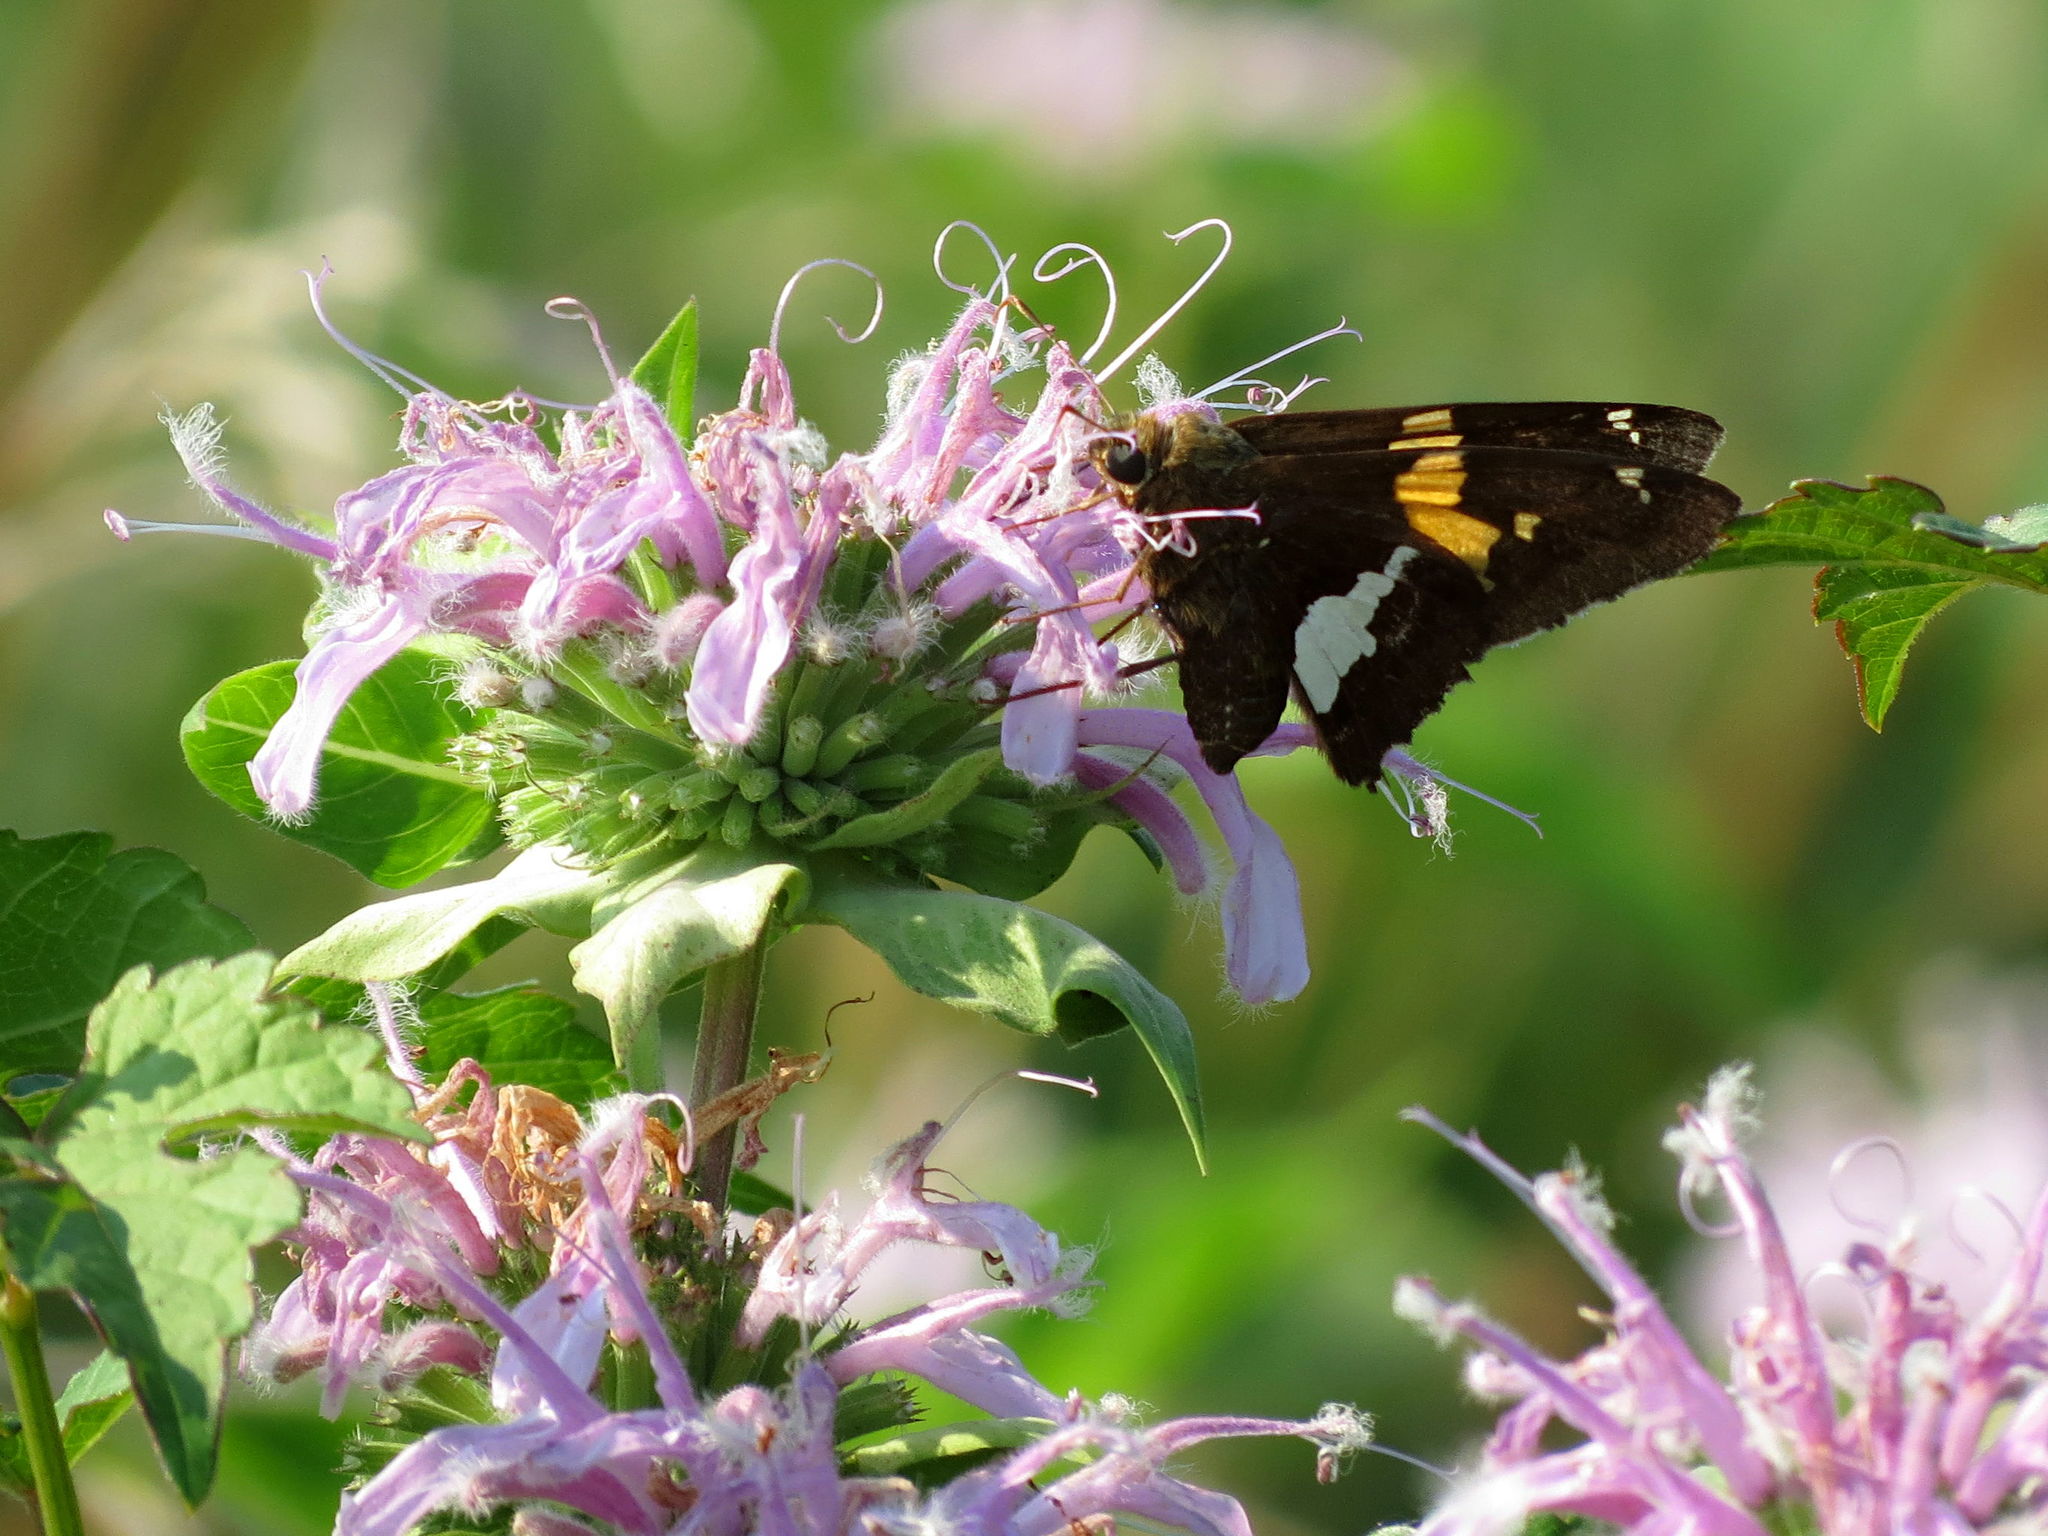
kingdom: Animalia
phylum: Arthropoda
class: Insecta
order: Lepidoptera
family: Hesperiidae
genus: Epargyreus
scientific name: Epargyreus clarus
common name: Silver-spotted skipper
